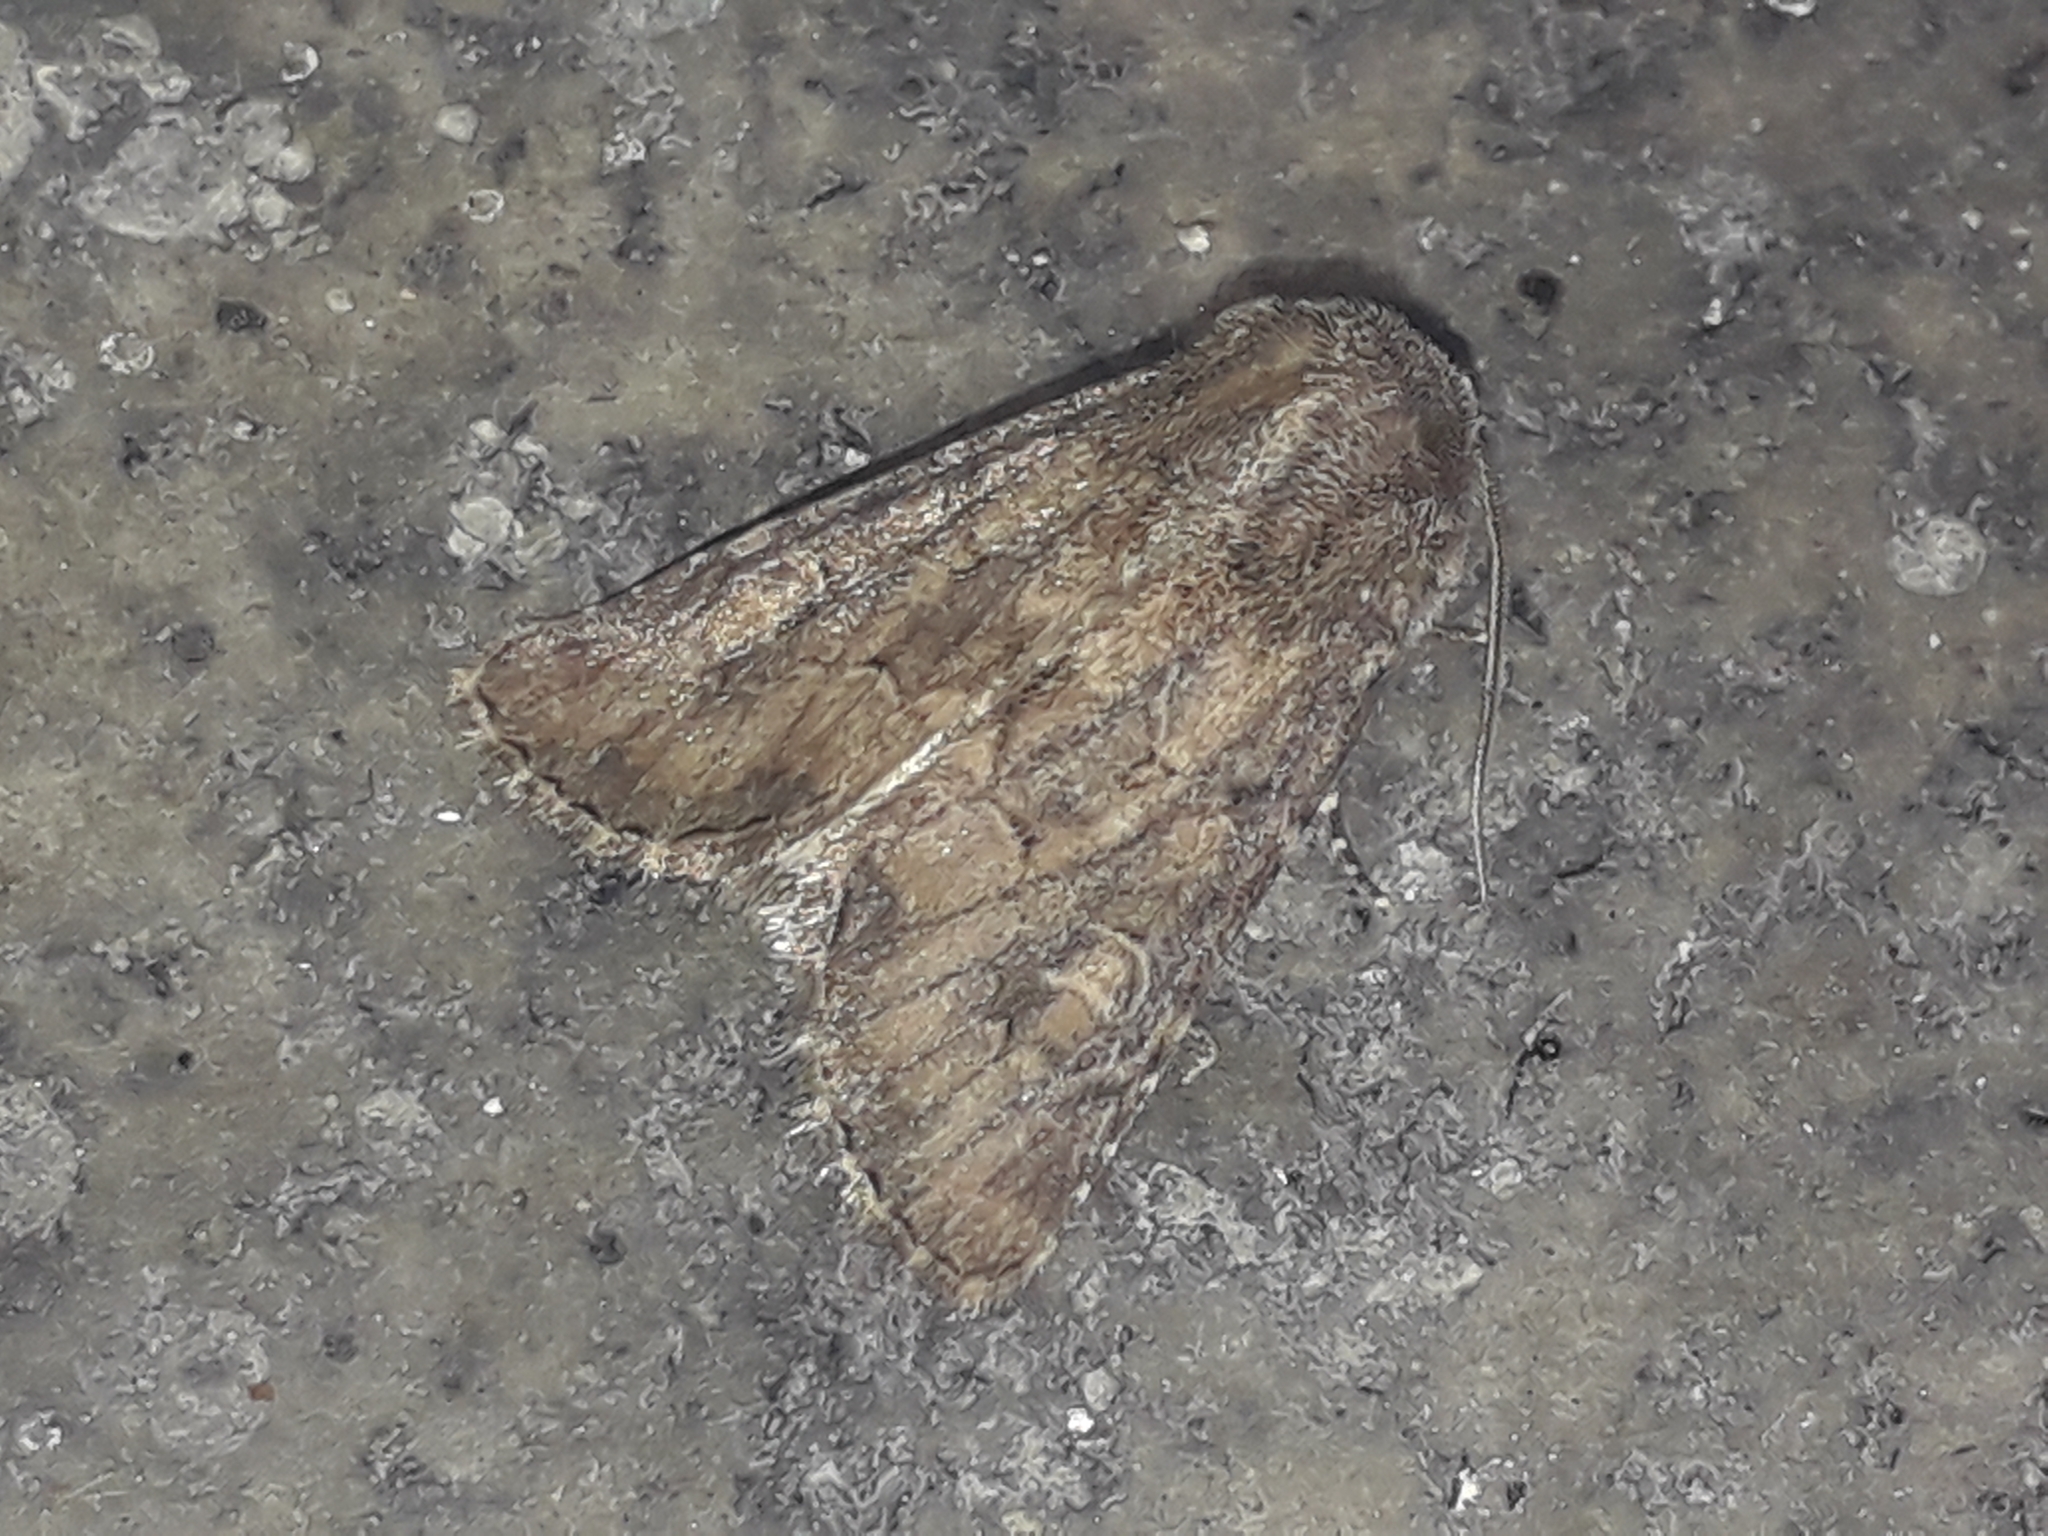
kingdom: Animalia
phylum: Arthropoda
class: Insecta
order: Lepidoptera
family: Noctuidae
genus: Luperina
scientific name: Luperina testacea
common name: Flounced rustic
